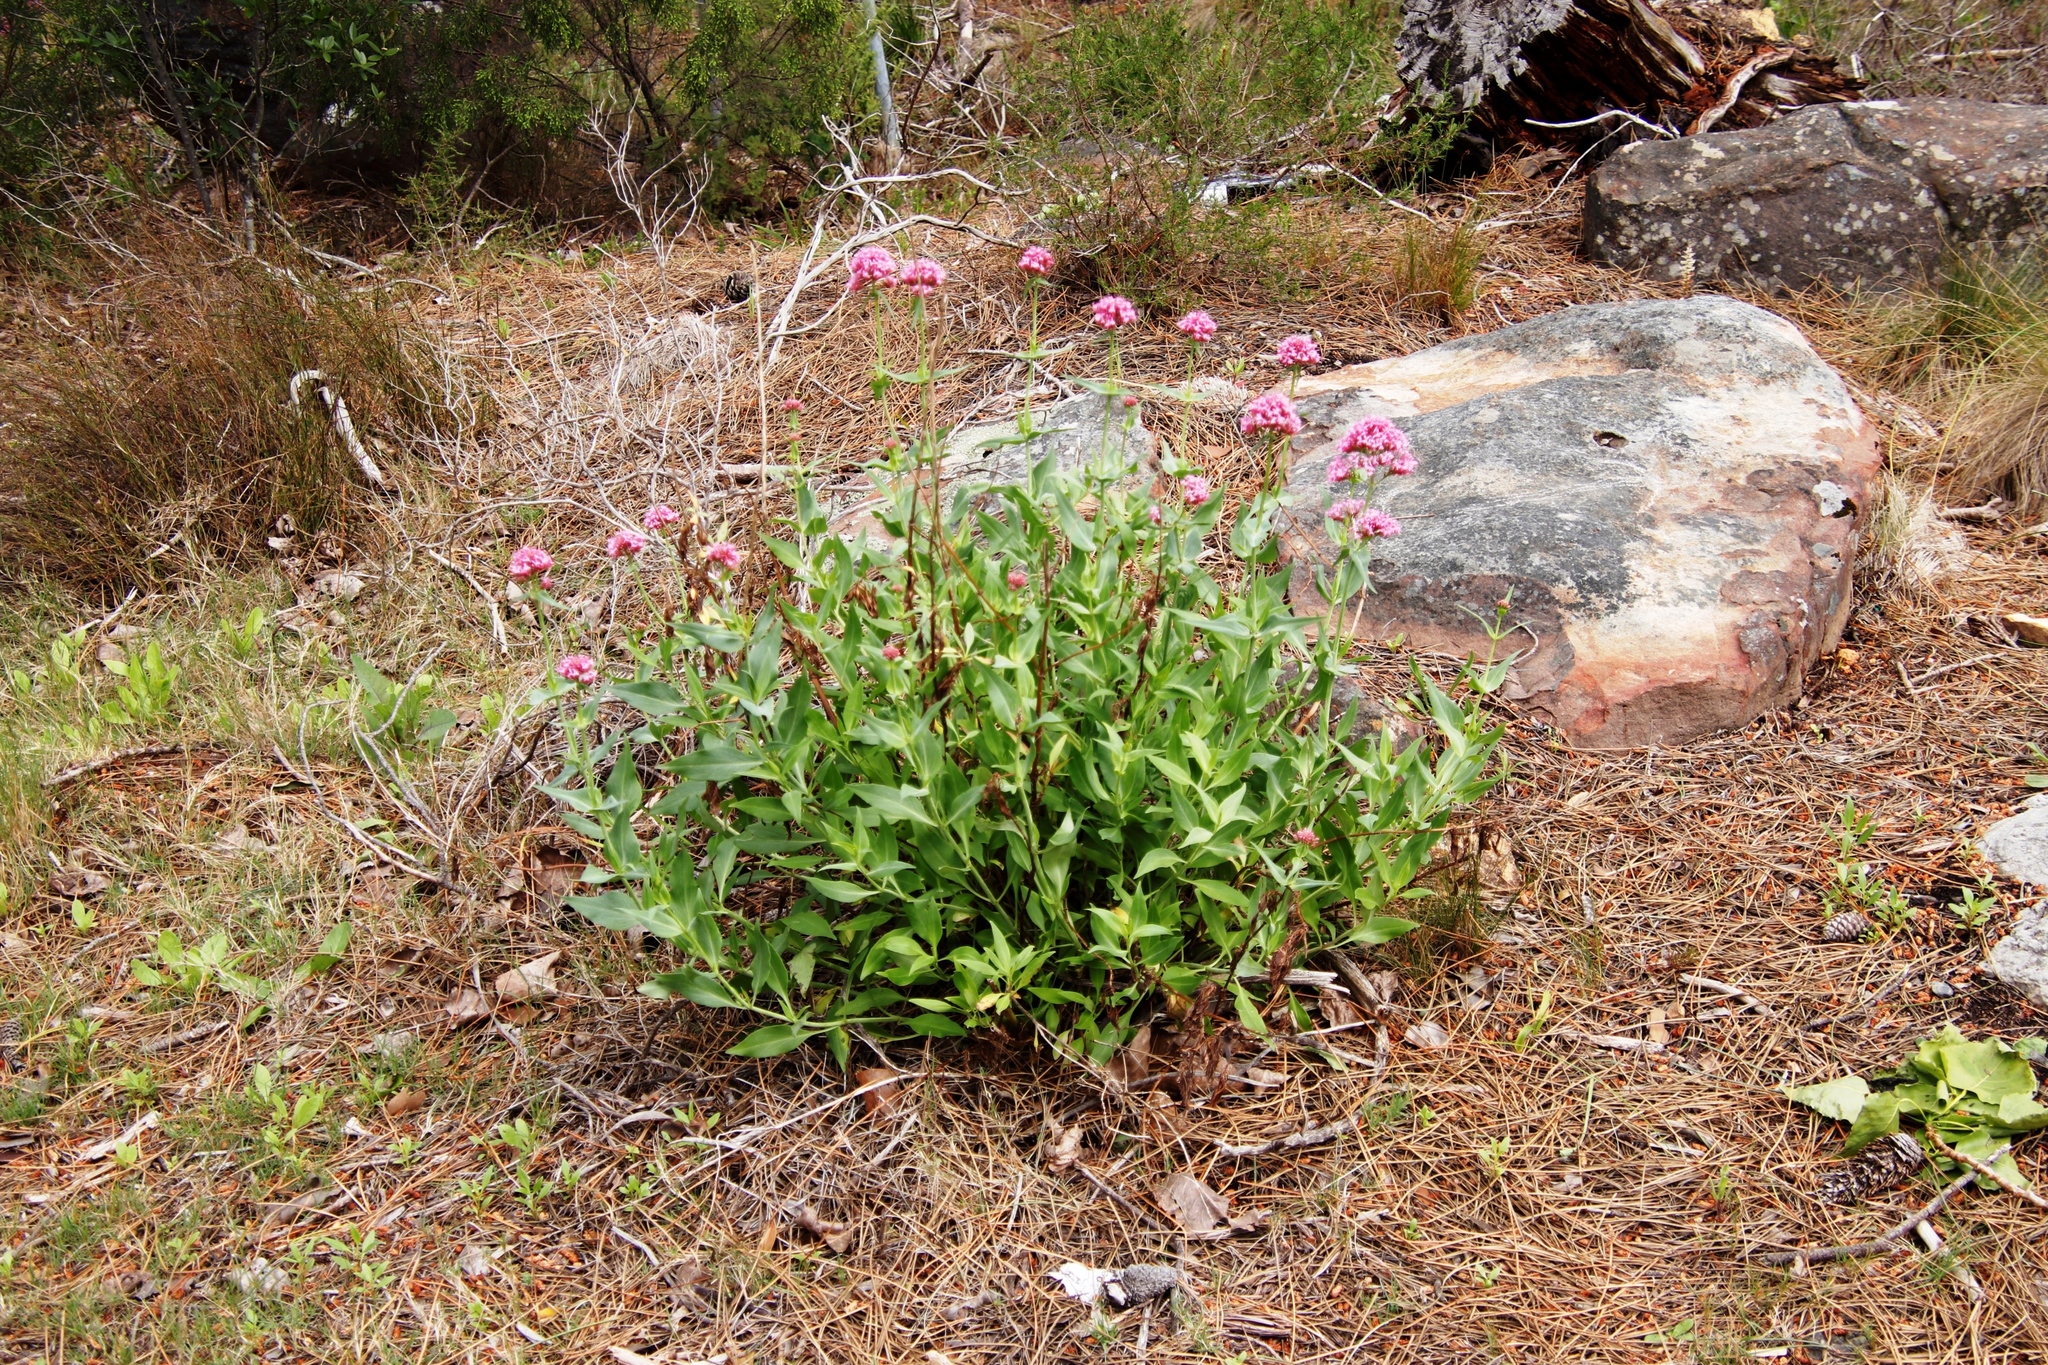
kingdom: Plantae
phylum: Tracheophyta
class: Magnoliopsida
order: Dipsacales
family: Caprifoliaceae
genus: Centranthus
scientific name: Centranthus ruber
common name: Red valerian
